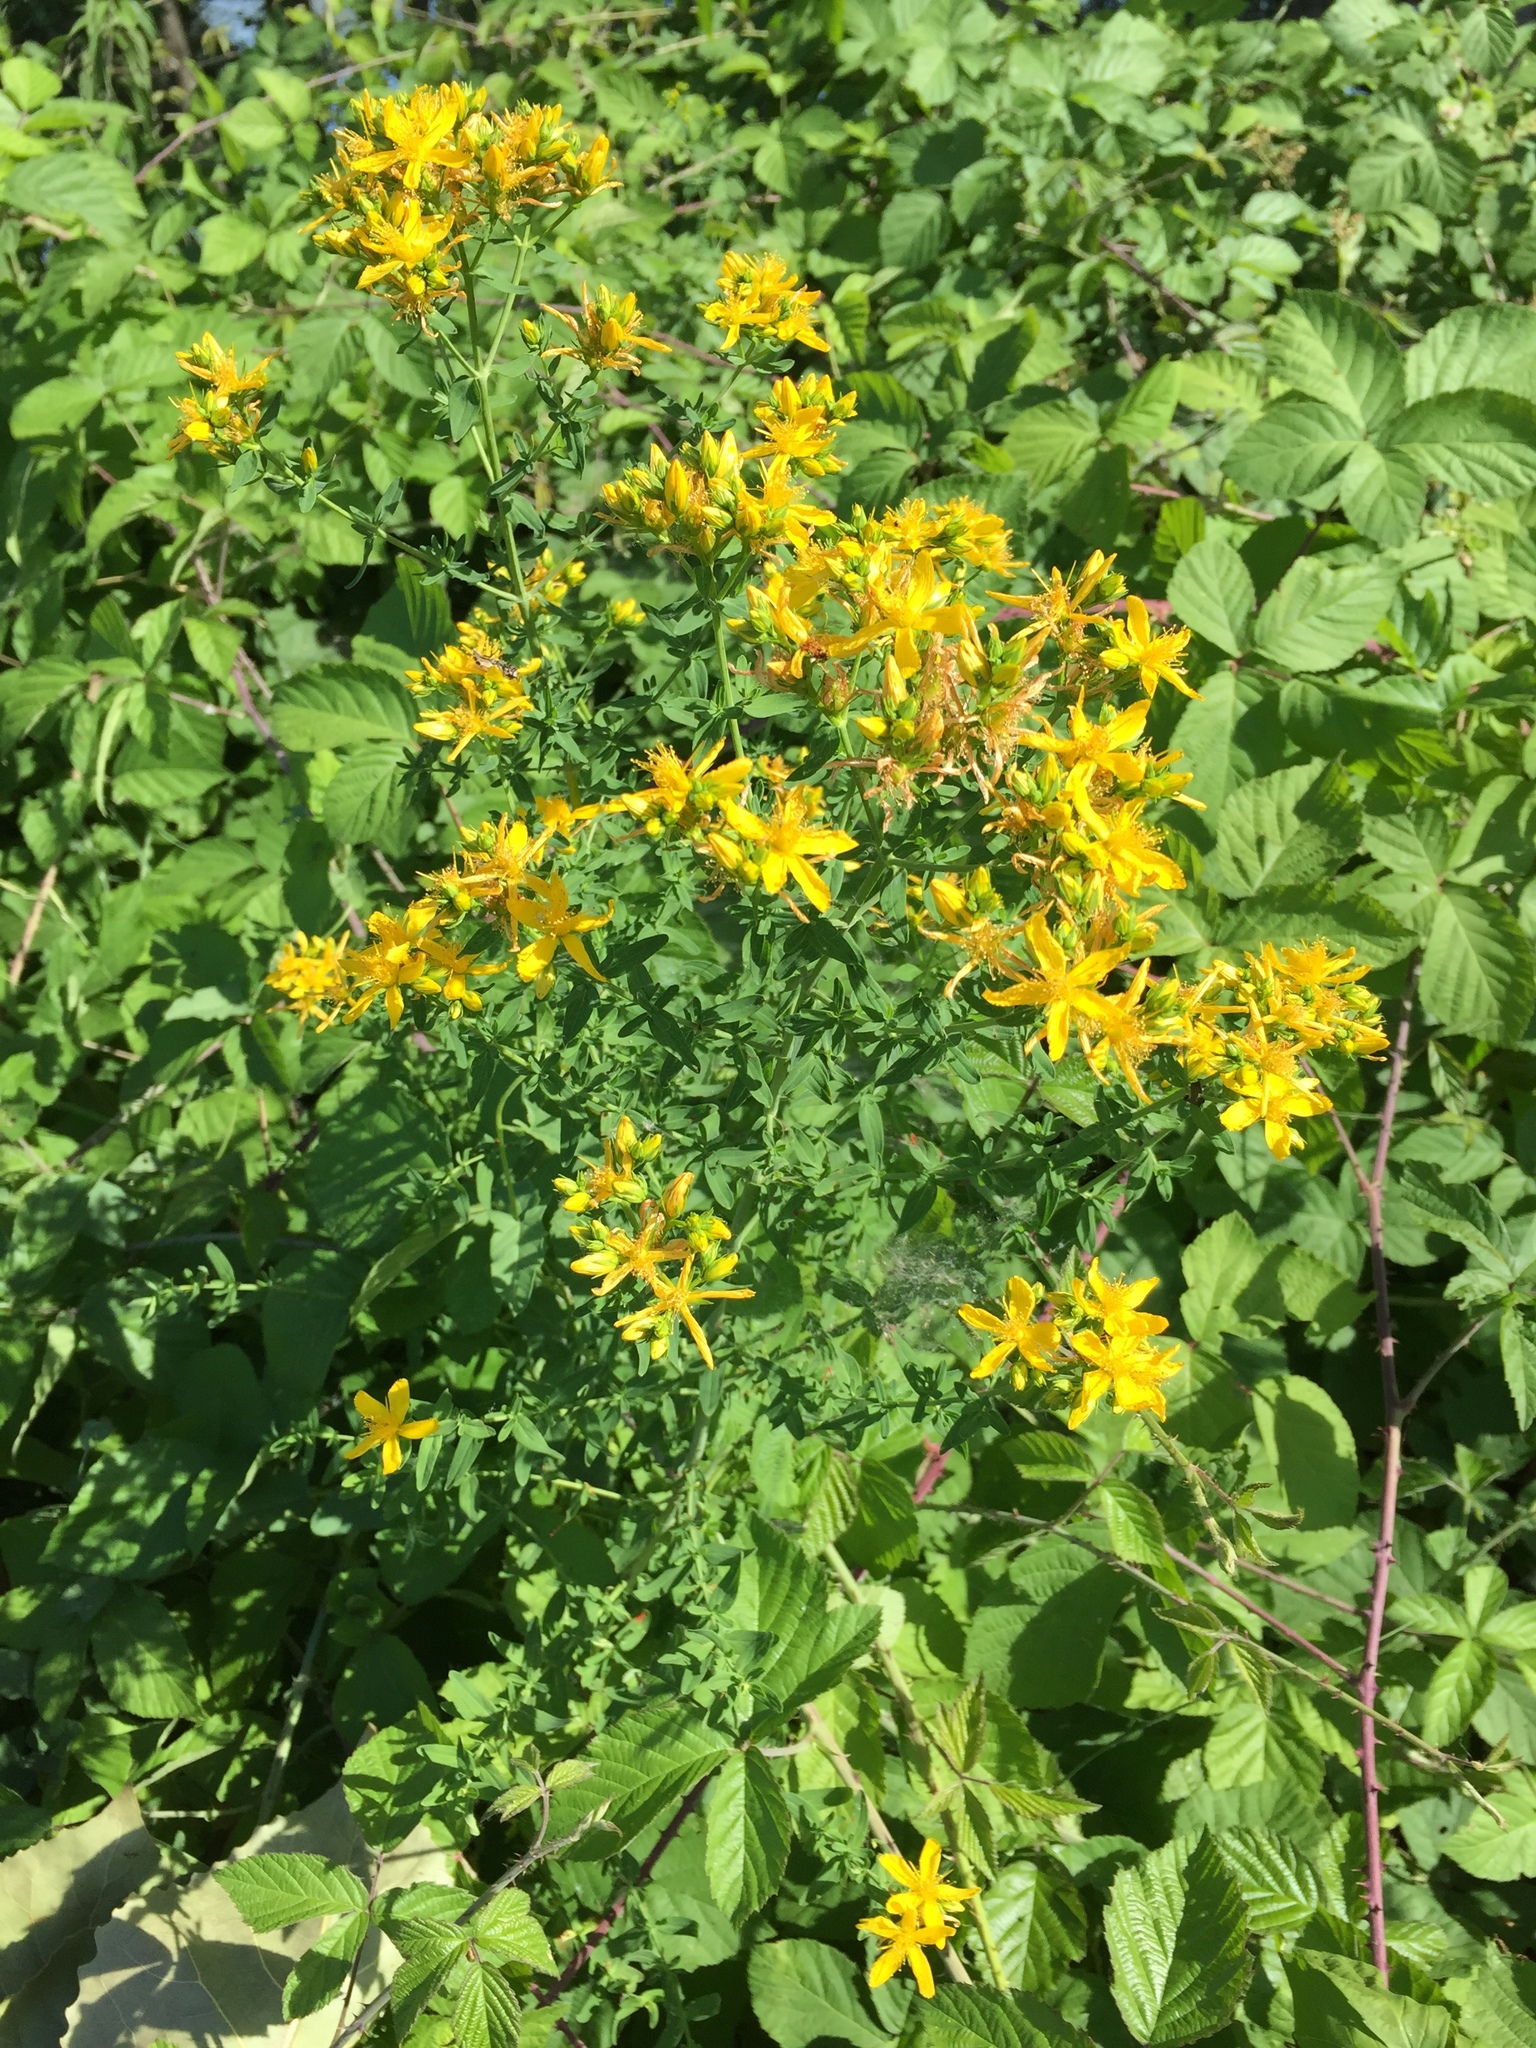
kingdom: Plantae
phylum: Tracheophyta
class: Magnoliopsida
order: Malpighiales
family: Hypericaceae
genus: Hypericum
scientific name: Hypericum perforatum
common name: Common st. johnswort
